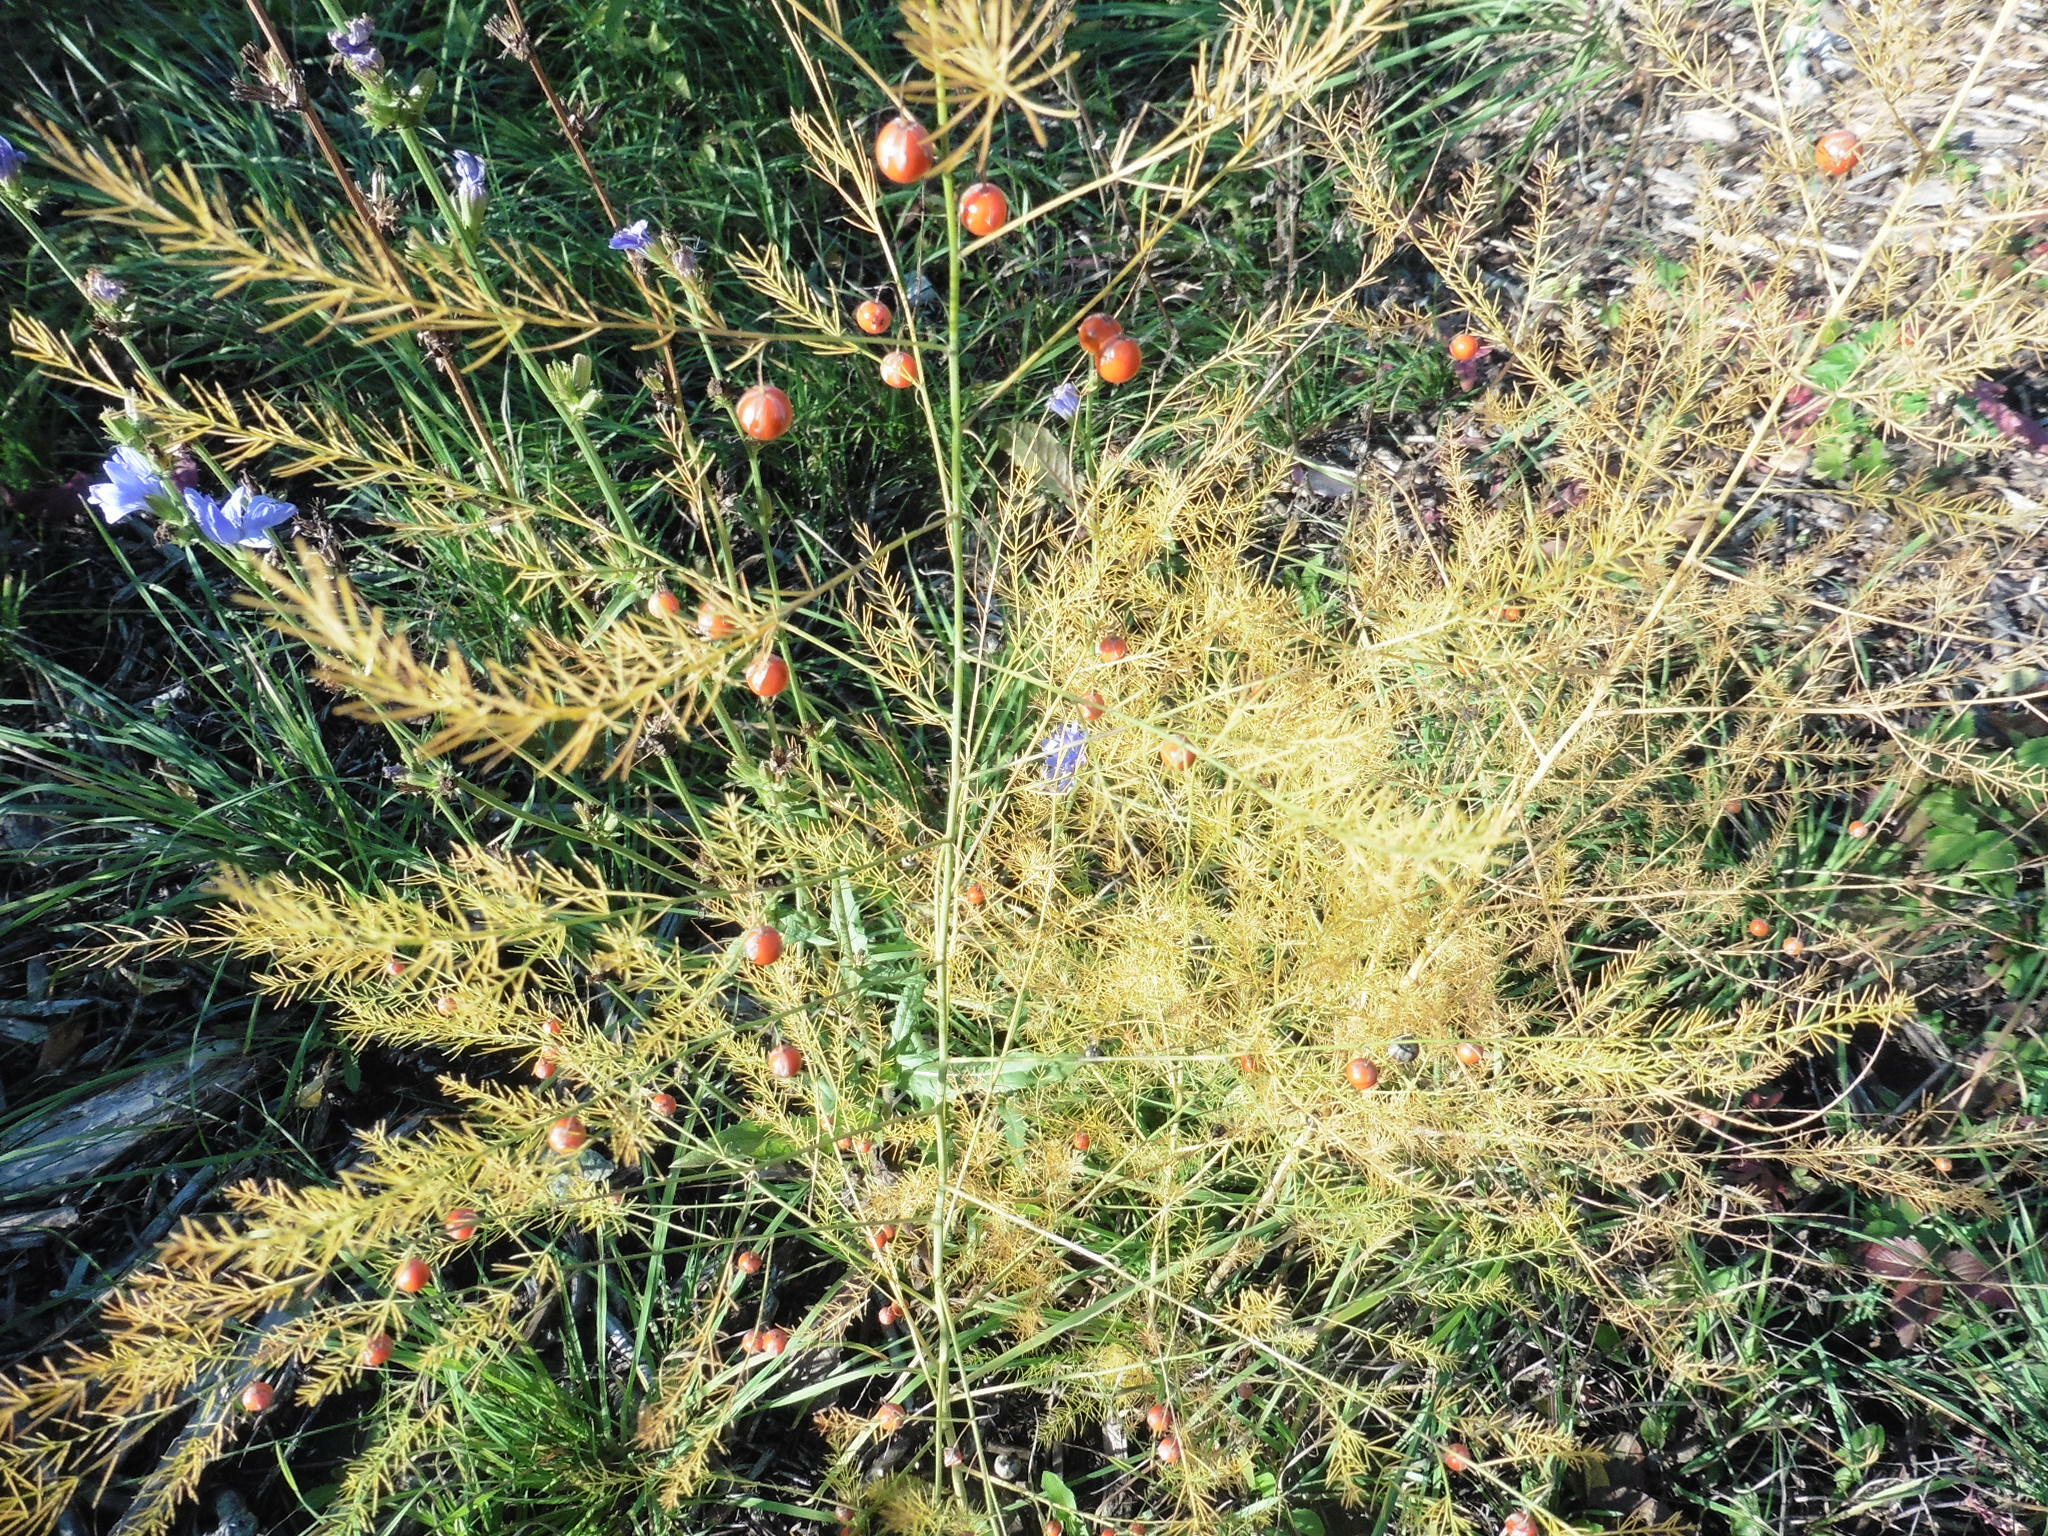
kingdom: Plantae
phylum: Tracheophyta
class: Liliopsida
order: Asparagales
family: Asparagaceae
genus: Asparagus
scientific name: Asparagus officinalis
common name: Garden asparagus
